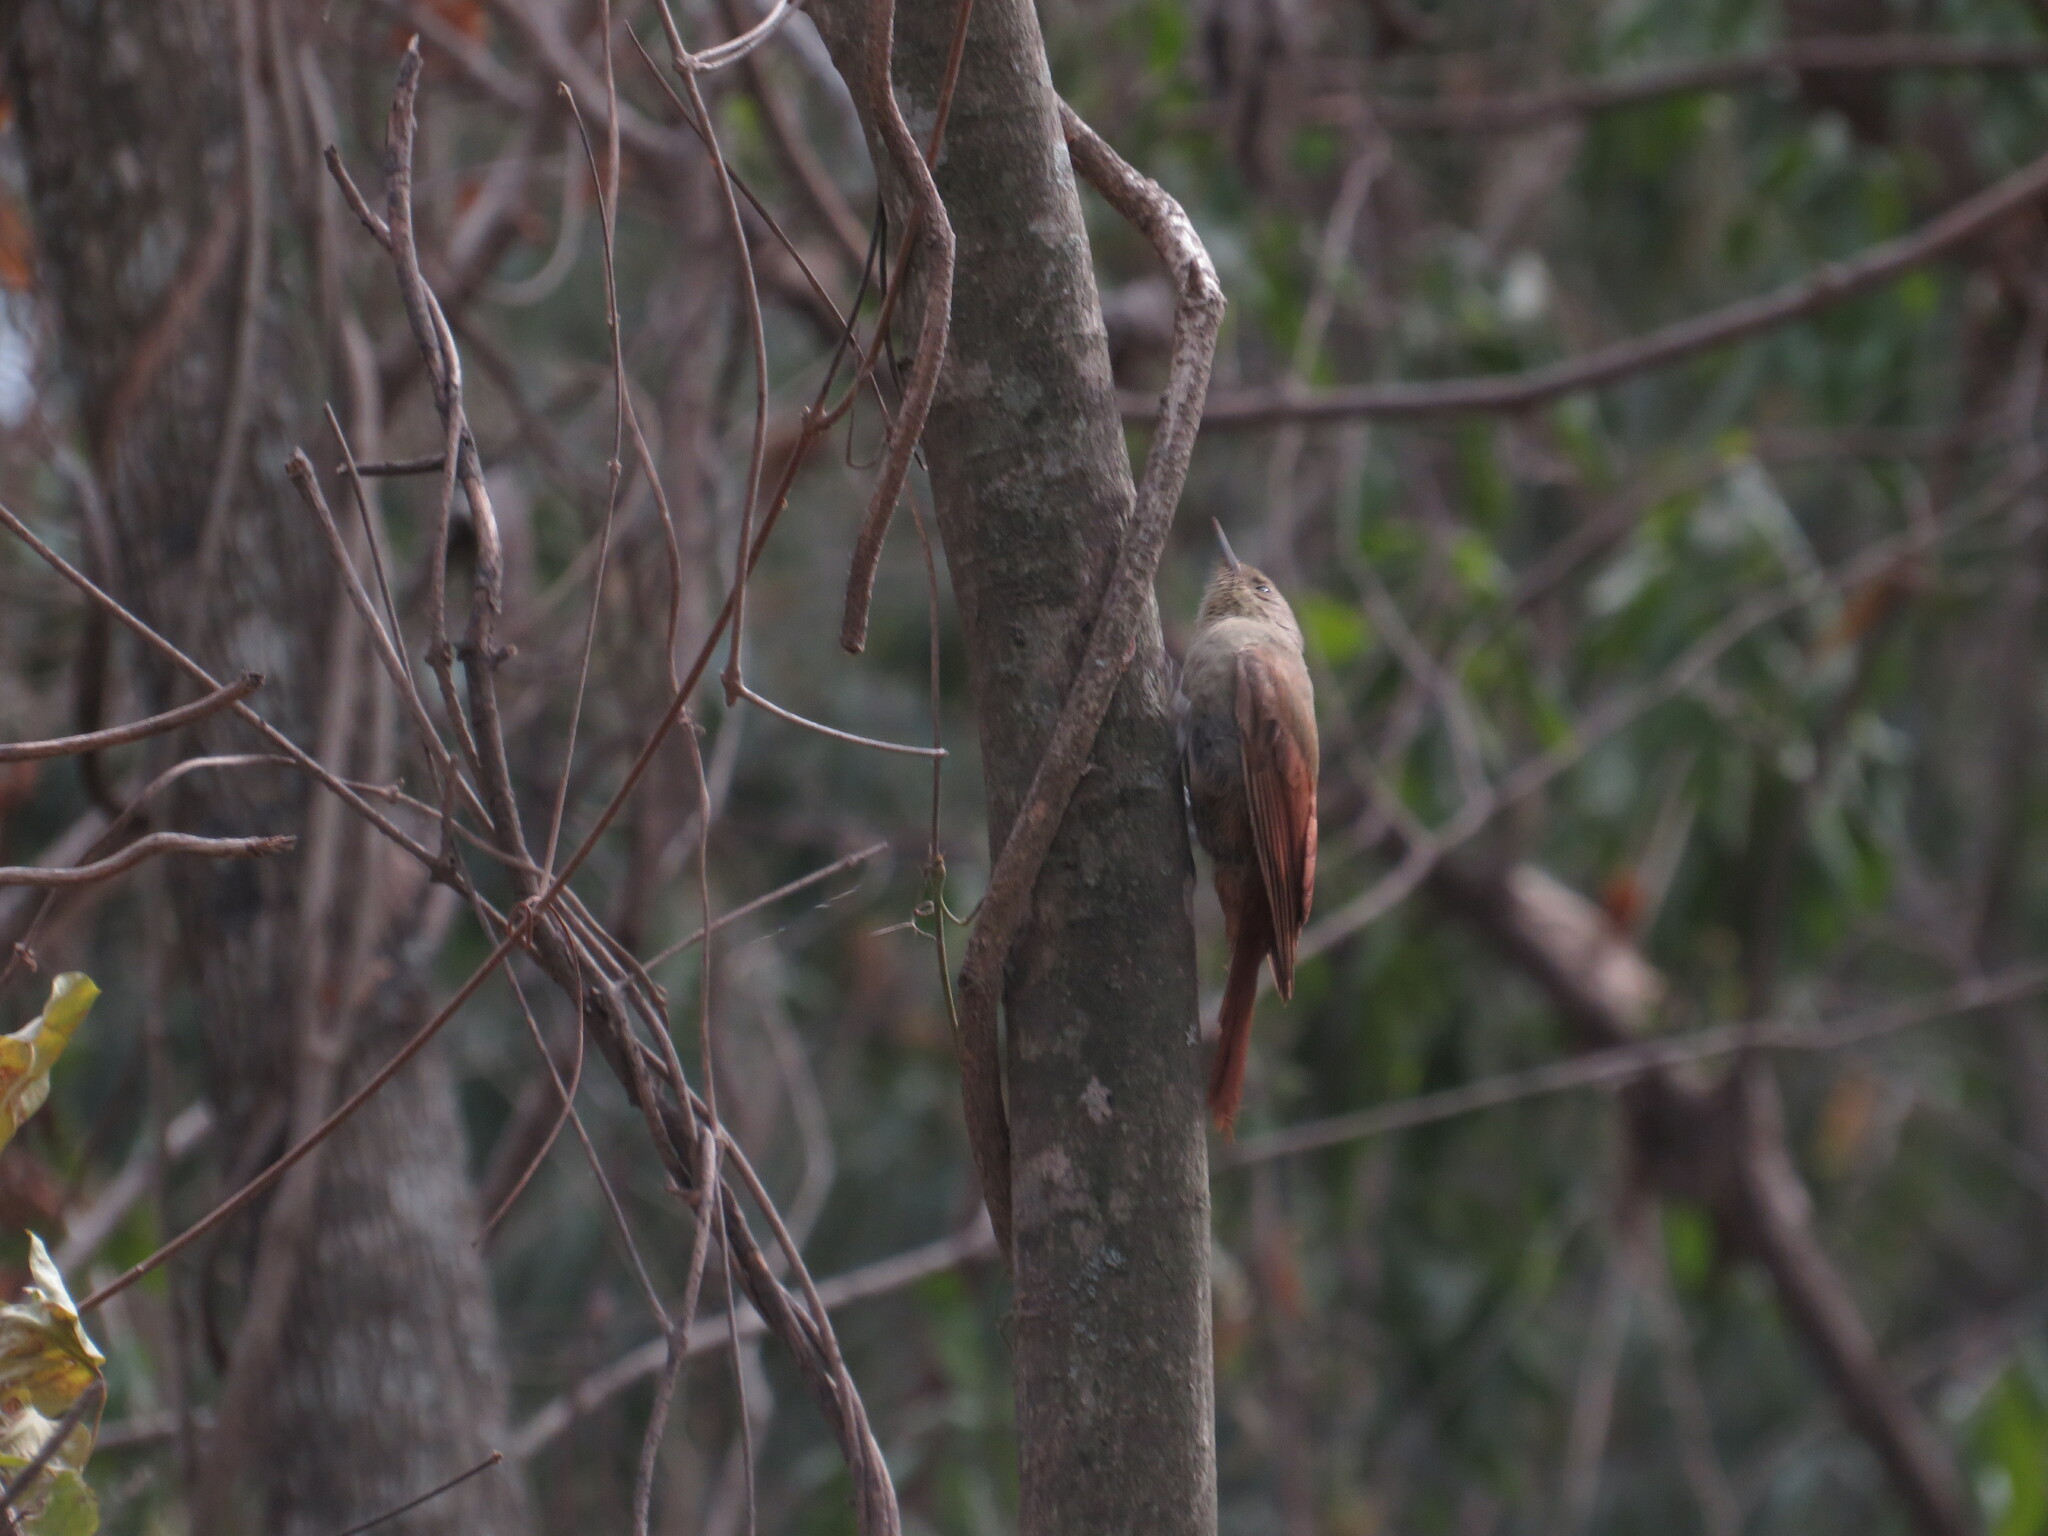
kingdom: Animalia
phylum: Chordata
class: Aves
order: Passeriformes
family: Furnariidae
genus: Sittasomus
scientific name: Sittasomus griseicapillus
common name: Olivaceous woodcreeper
